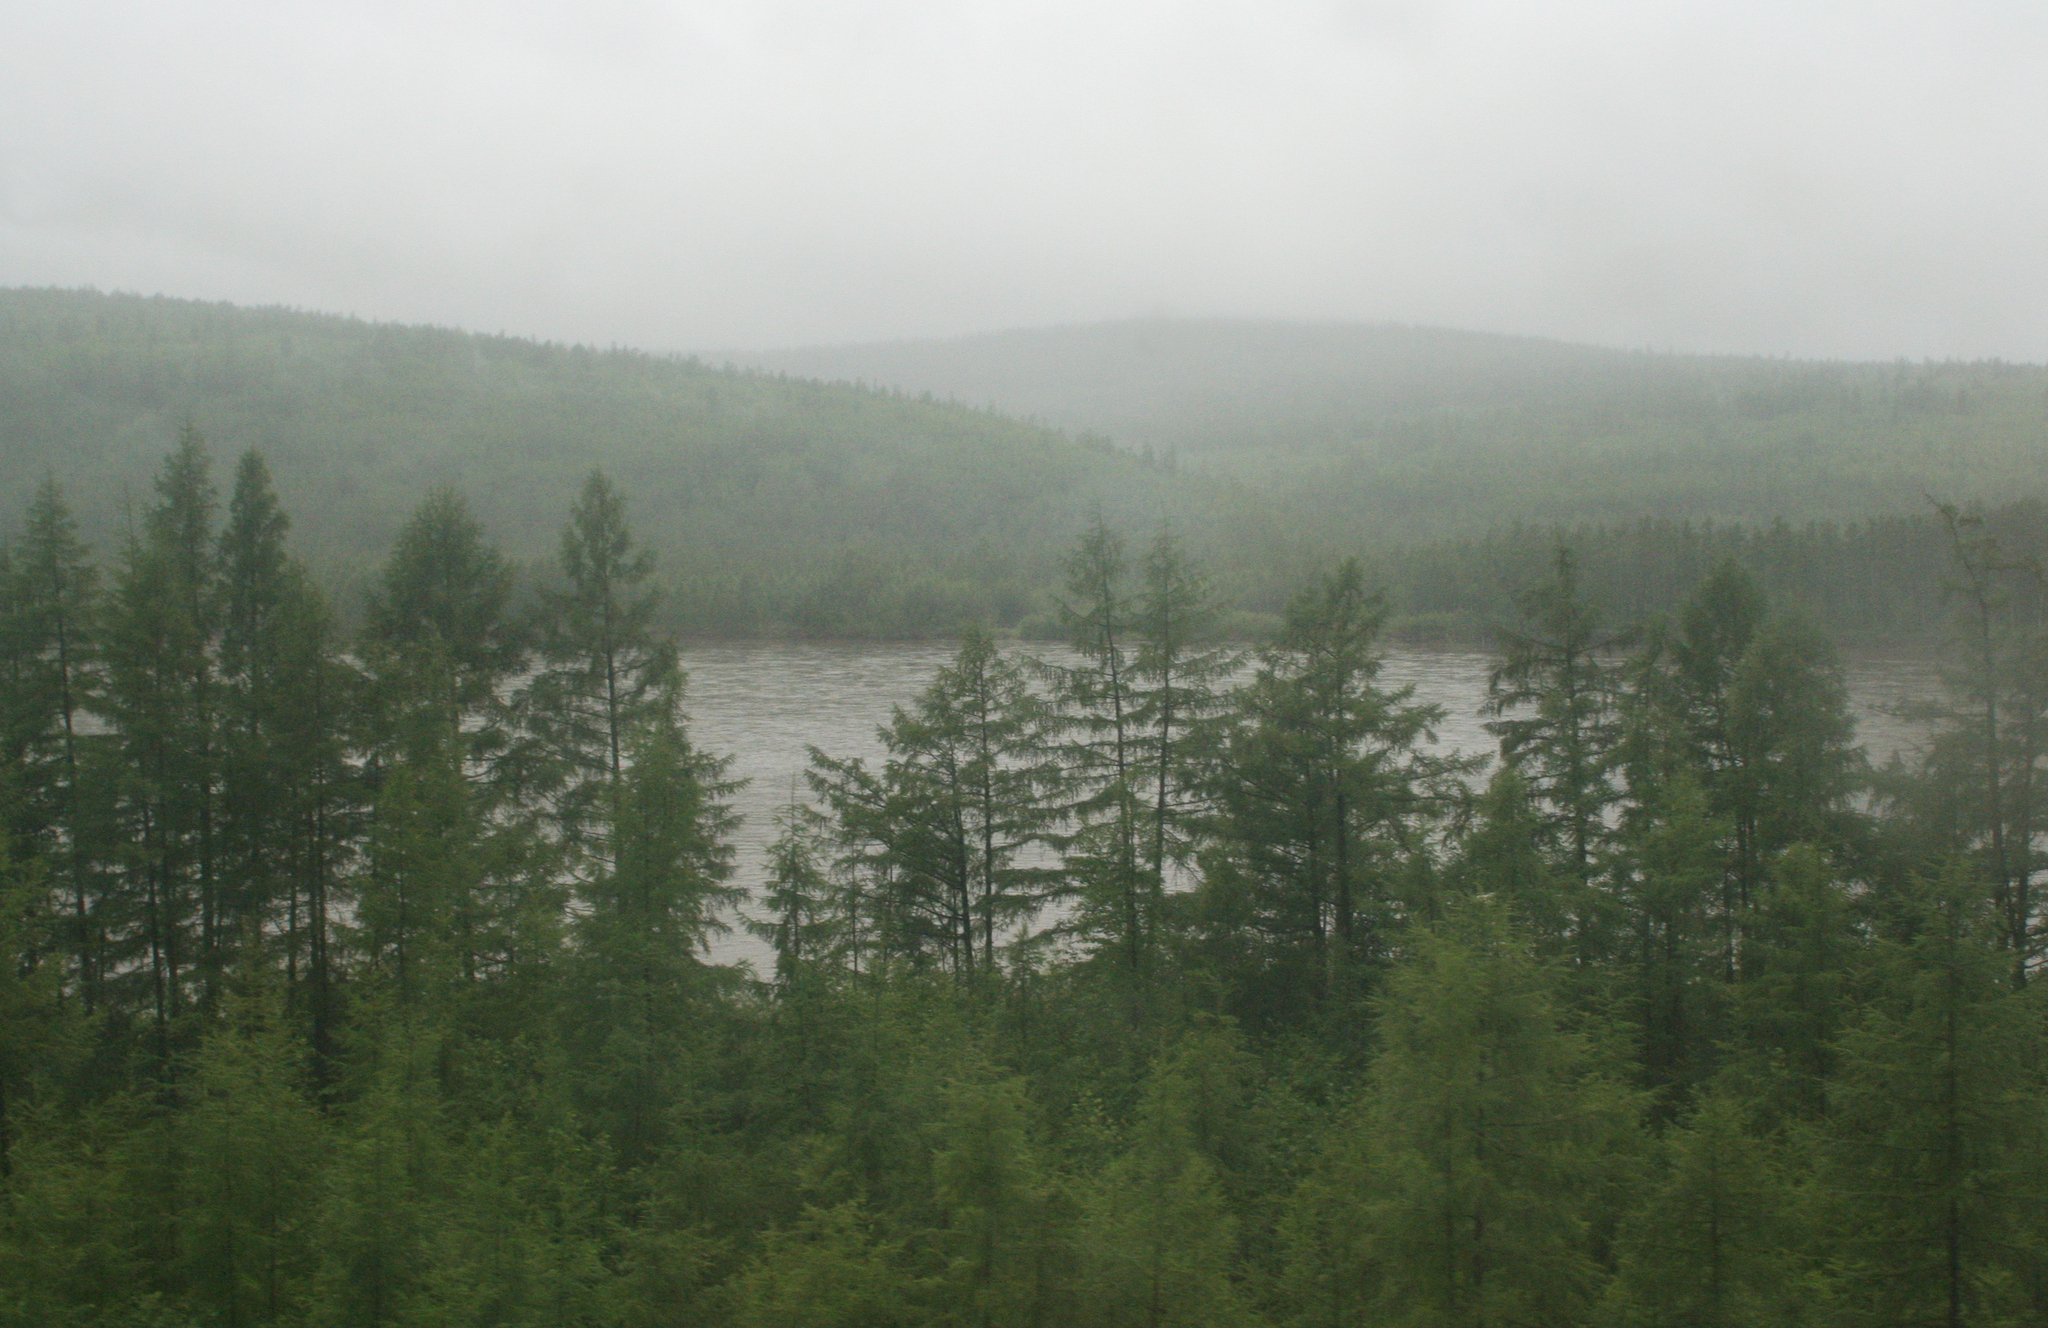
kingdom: Plantae
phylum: Tracheophyta
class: Pinopsida
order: Pinales
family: Pinaceae
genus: Larix
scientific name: Larix gmelinii
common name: Dahurian larch
